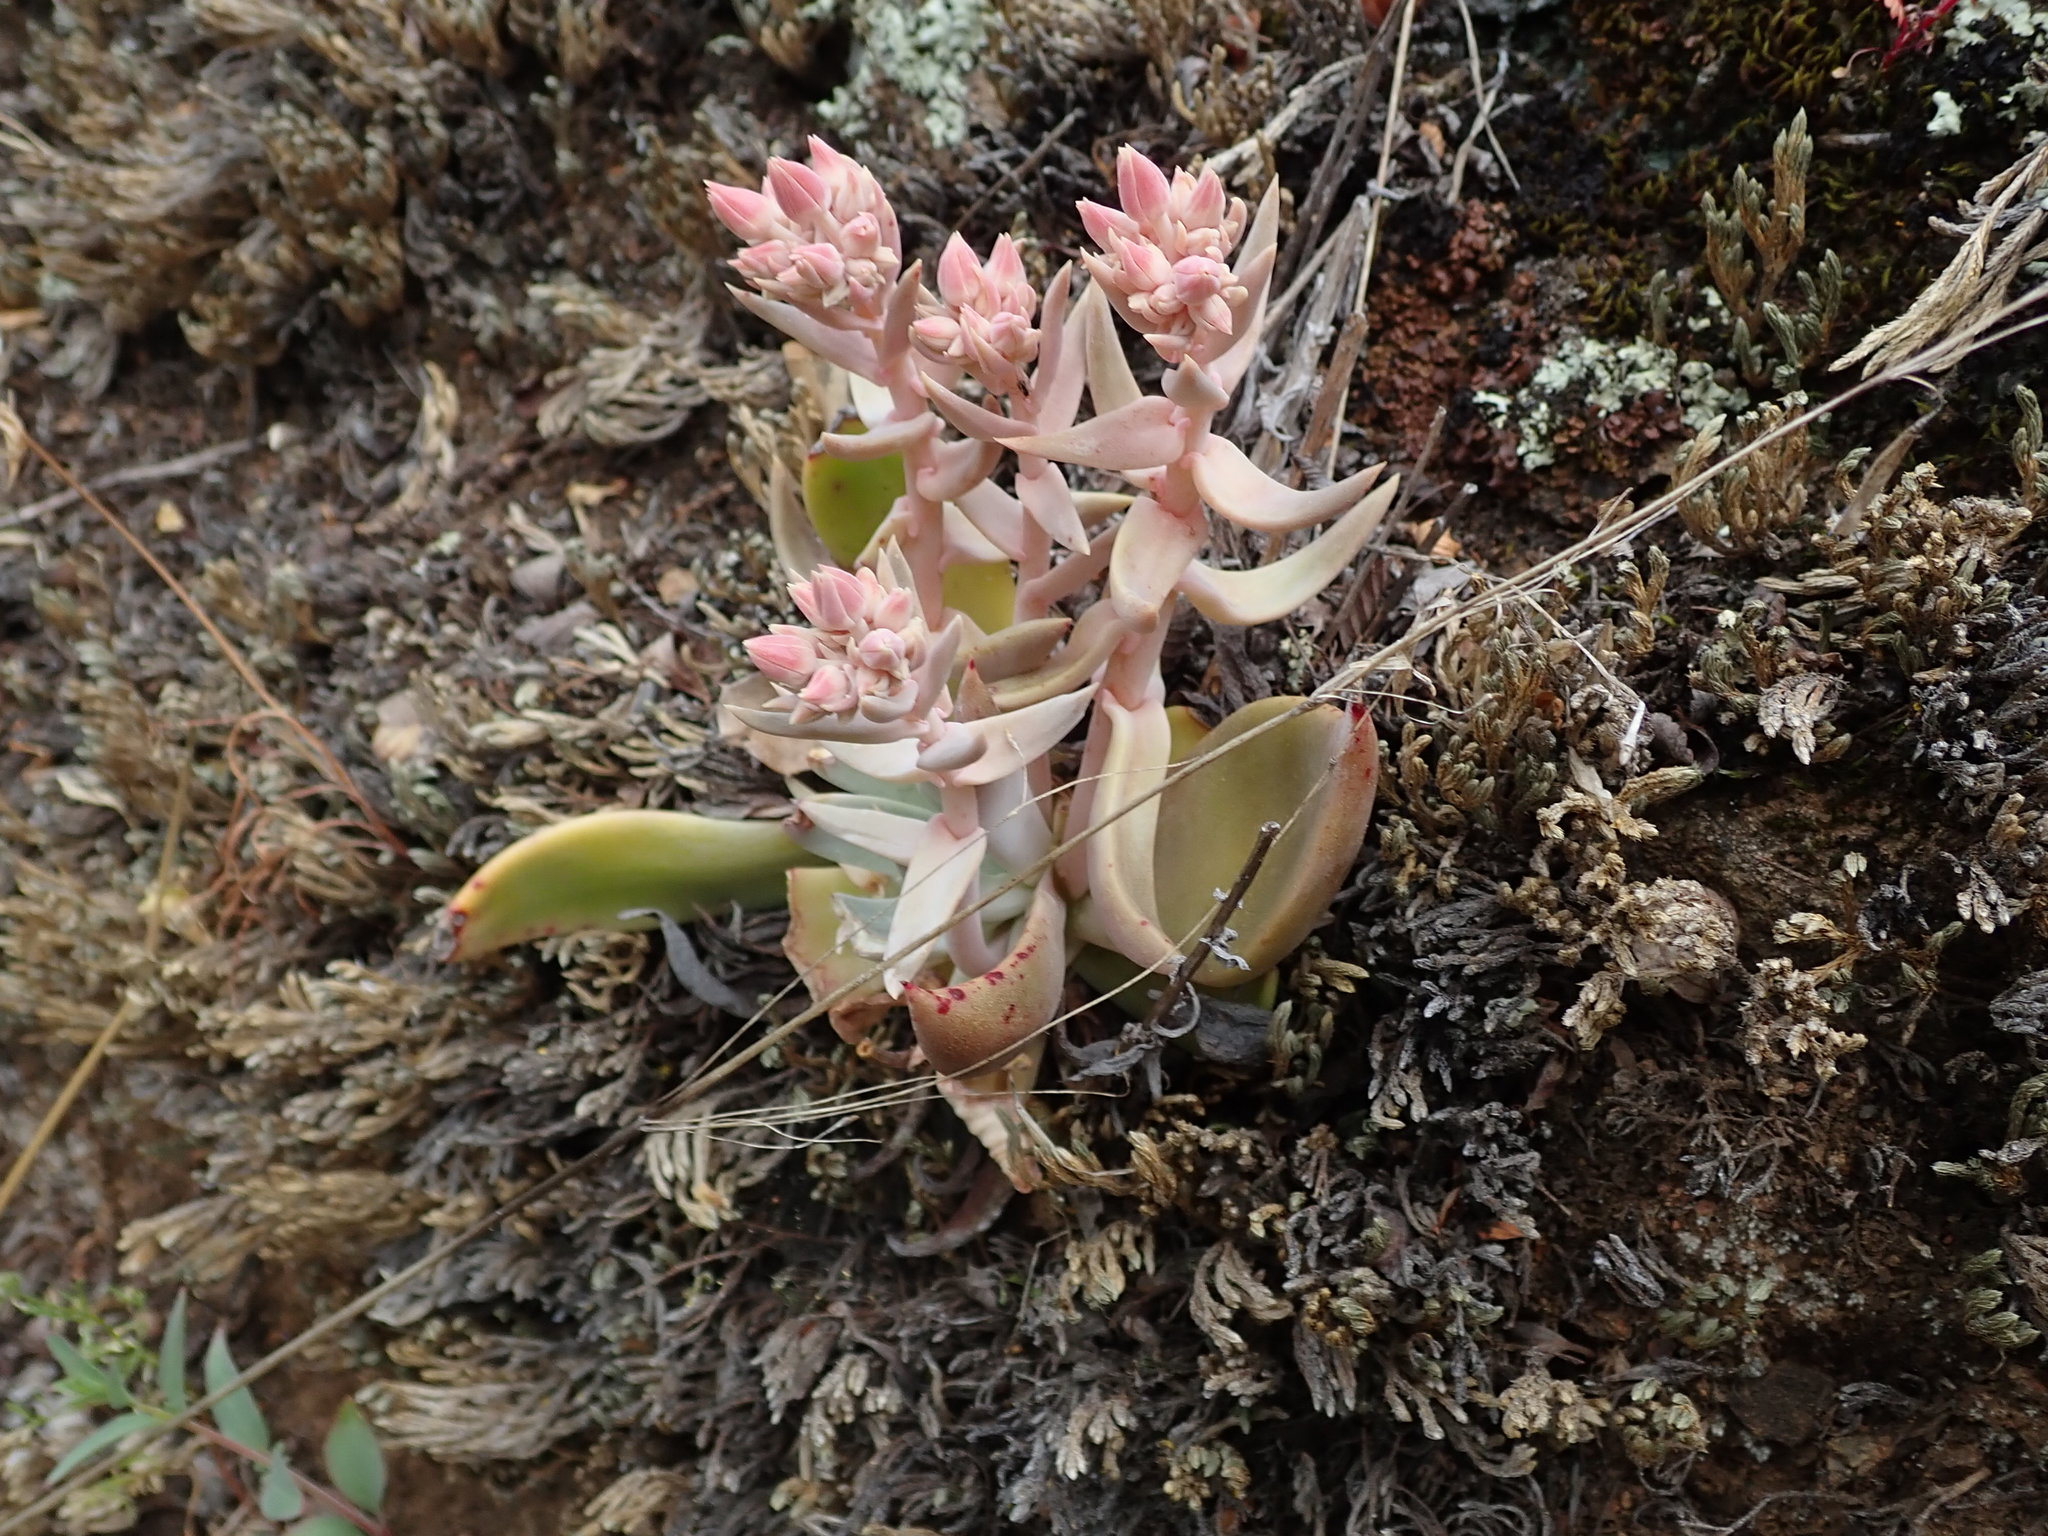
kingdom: Plantae
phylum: Tracheophyta
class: Magnoliopsida
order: Saxifragales
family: Crassulaceae
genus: Dudleya
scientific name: Dudleya cymosa
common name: Canyon dudleya
